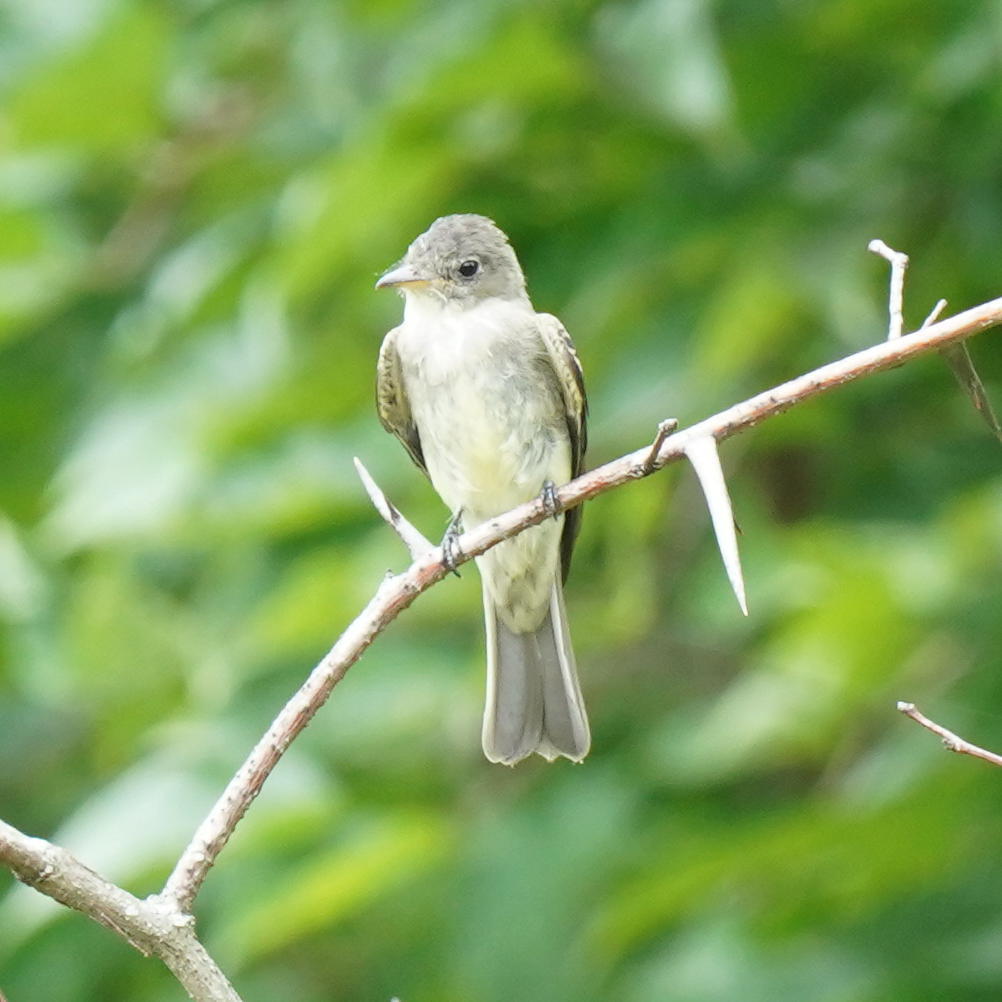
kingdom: Animalia
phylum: Chordata
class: Aves
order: Passeriformes
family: Tyrannidae
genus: Contopus
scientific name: Contopus virens
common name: Eastern wood-pewee
